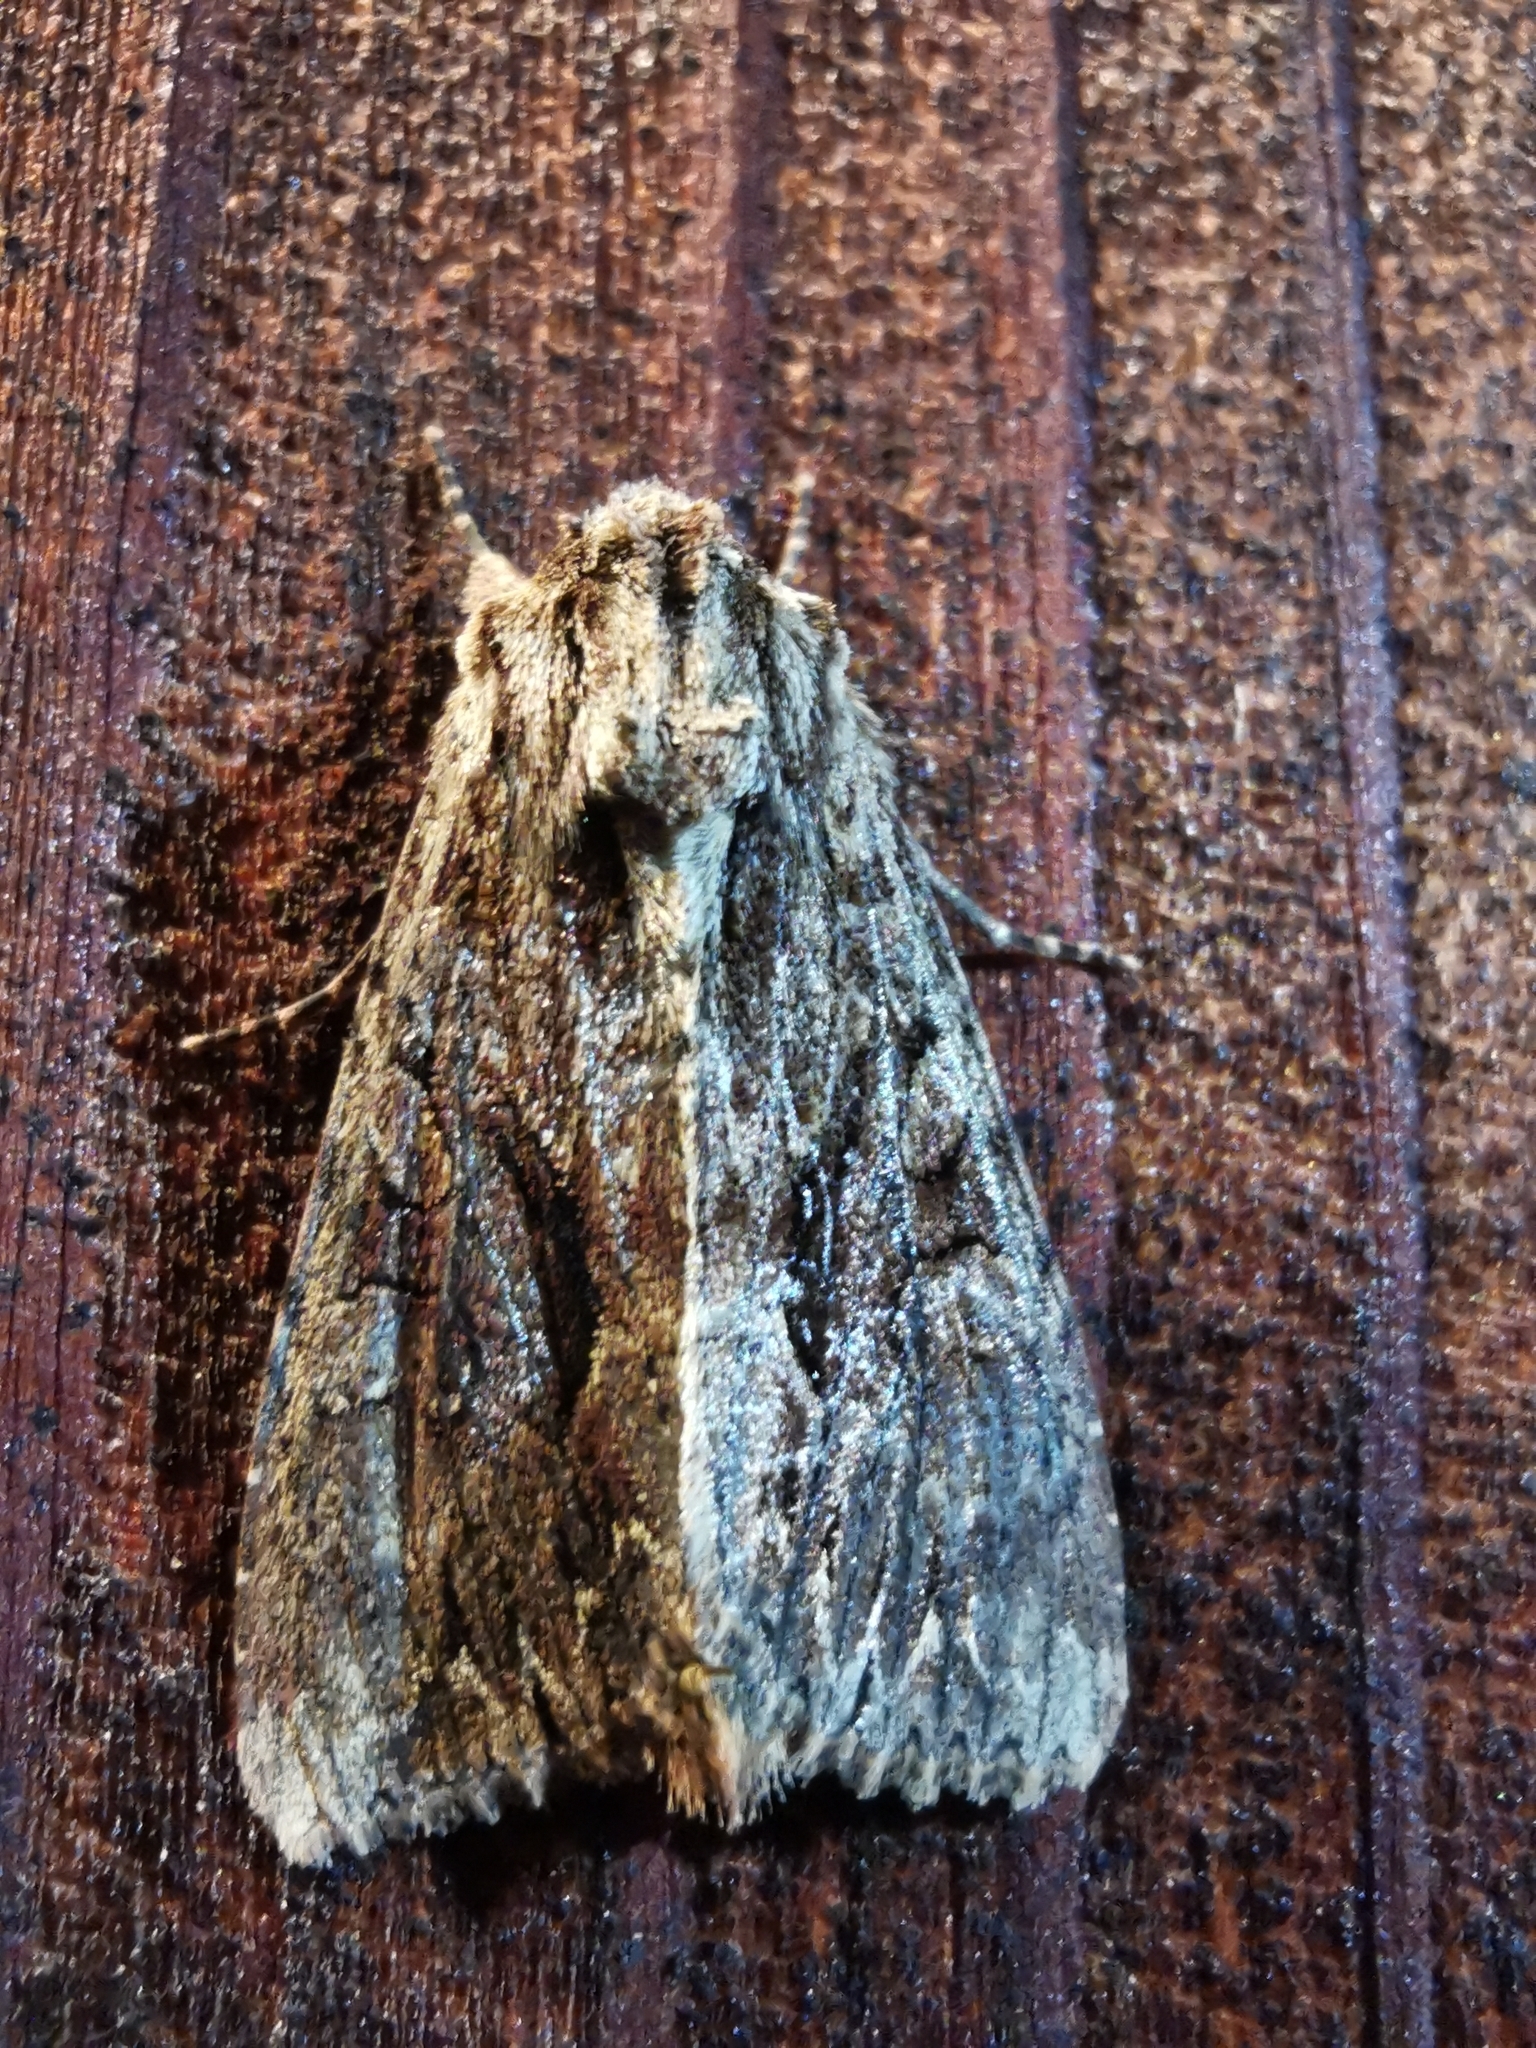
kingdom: Animalia
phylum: Arthropoda
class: Insecta
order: Lepidoptera
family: Noctuidae
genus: Apamea
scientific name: Apamea monoglypha
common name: Dark arches
